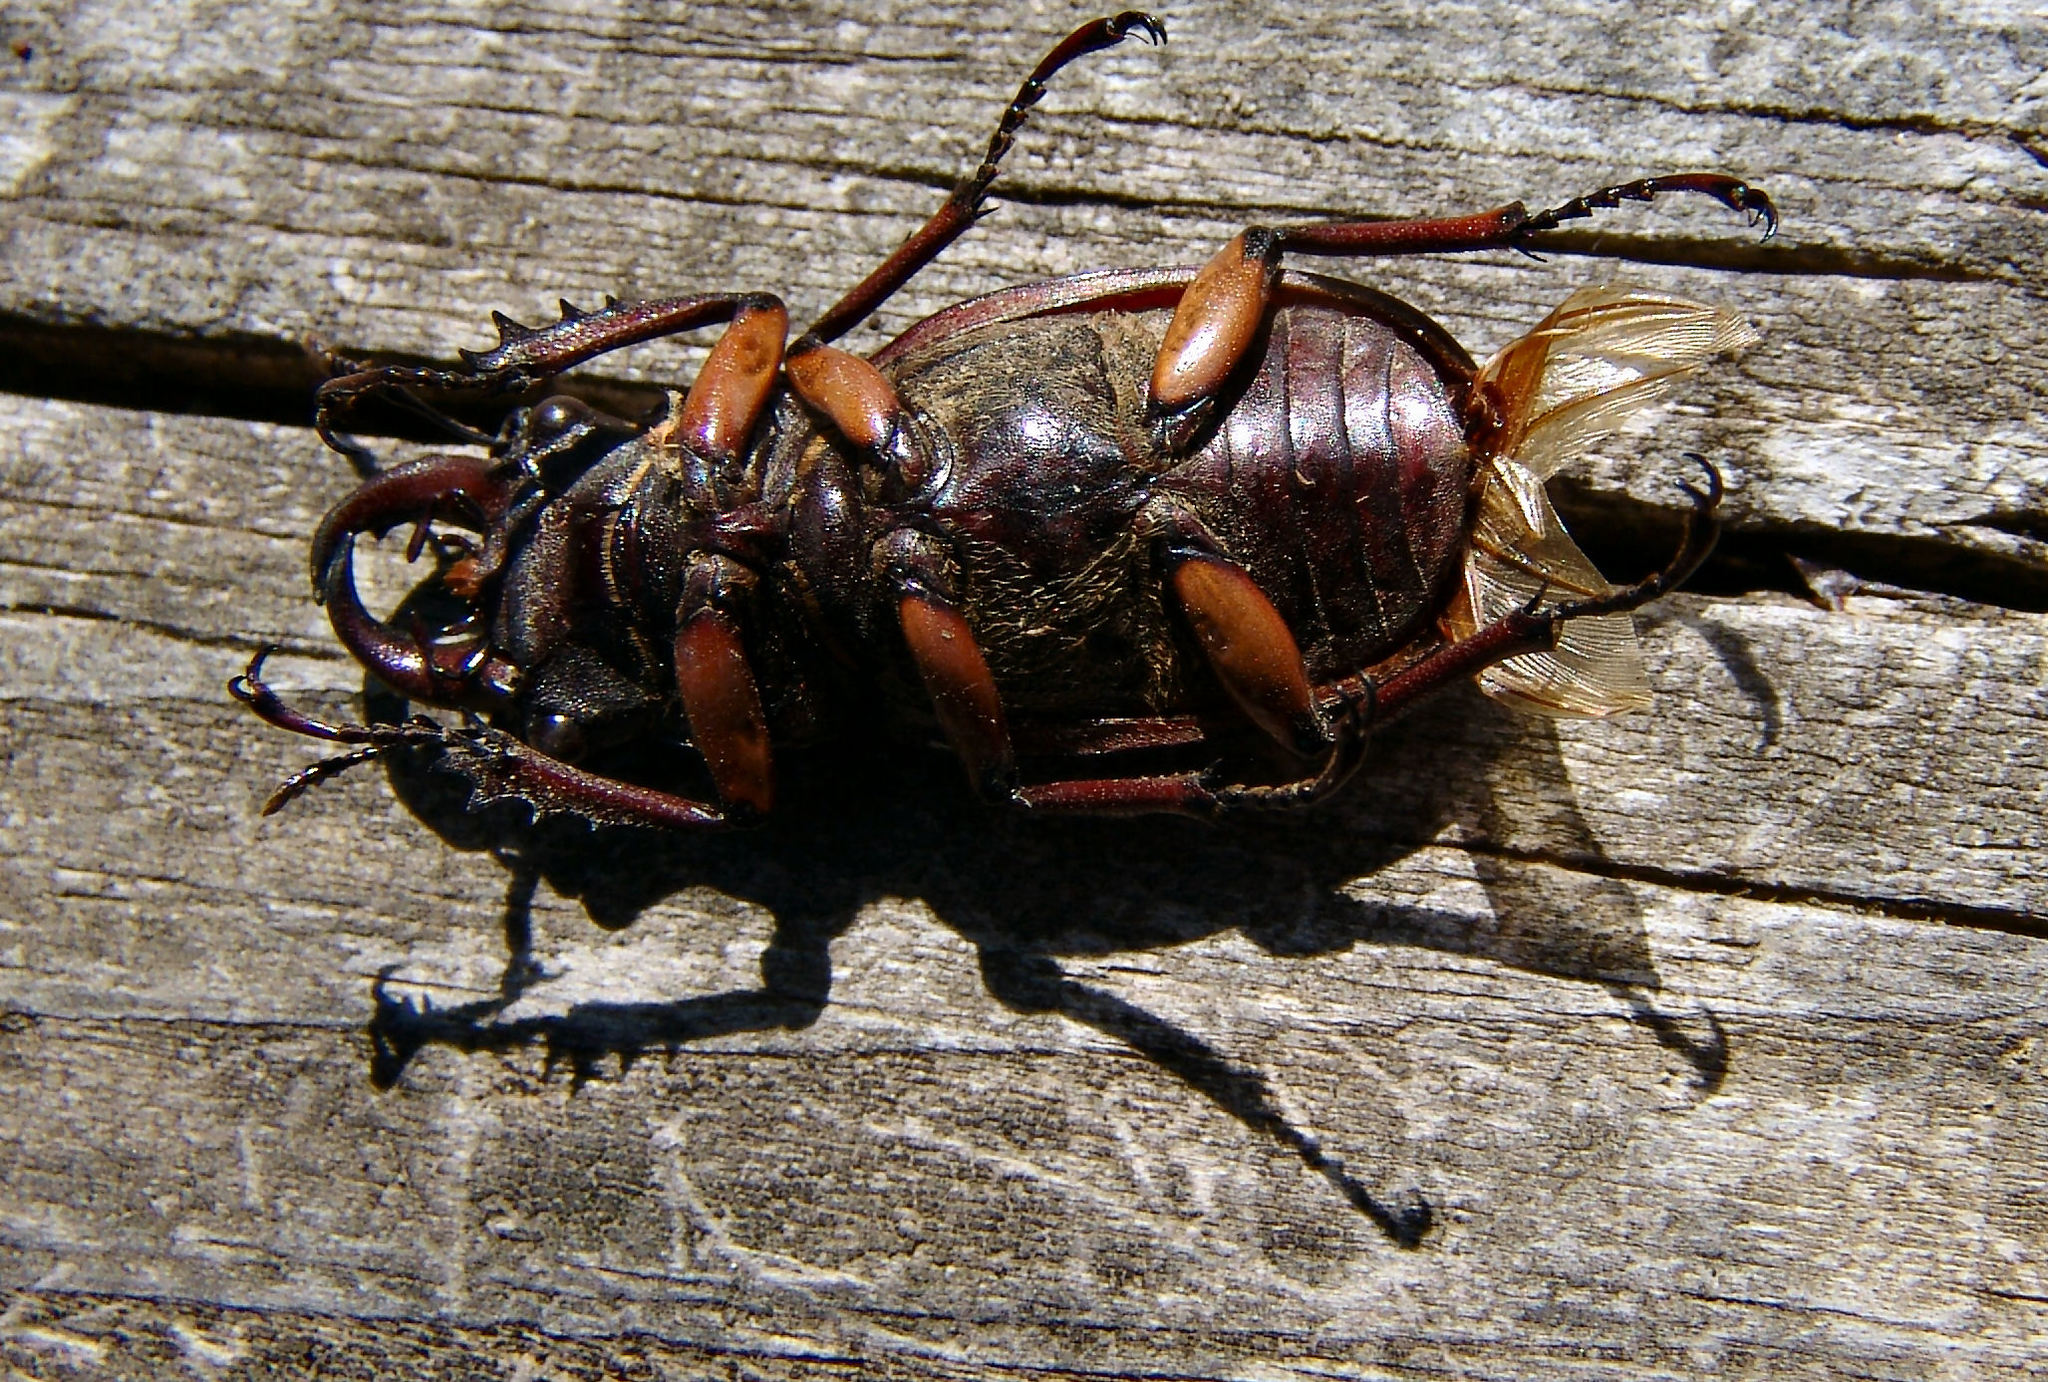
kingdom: Animalia
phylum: Arthropoda
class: Insecta
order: Coleoptera
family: Lucanidae
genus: Lucanus
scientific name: Lucanus capreolus
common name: Stag beetle
